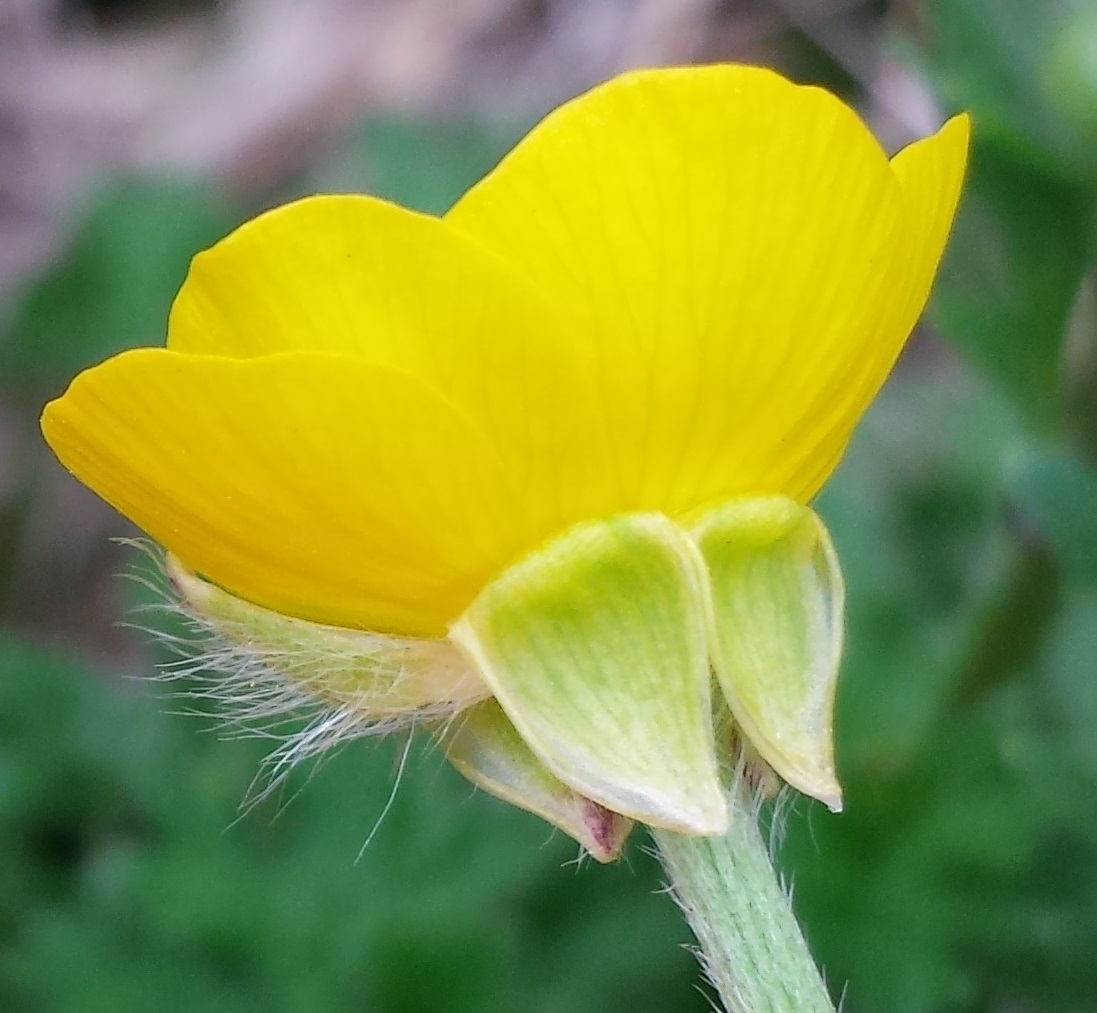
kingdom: Plantae
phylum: Tracheophyta
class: Magnoliopsida
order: Ranunculales
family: Ranunculaceae
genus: Ranunculus
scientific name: Ranunculus bulbosus
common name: Bulbous buttercup
